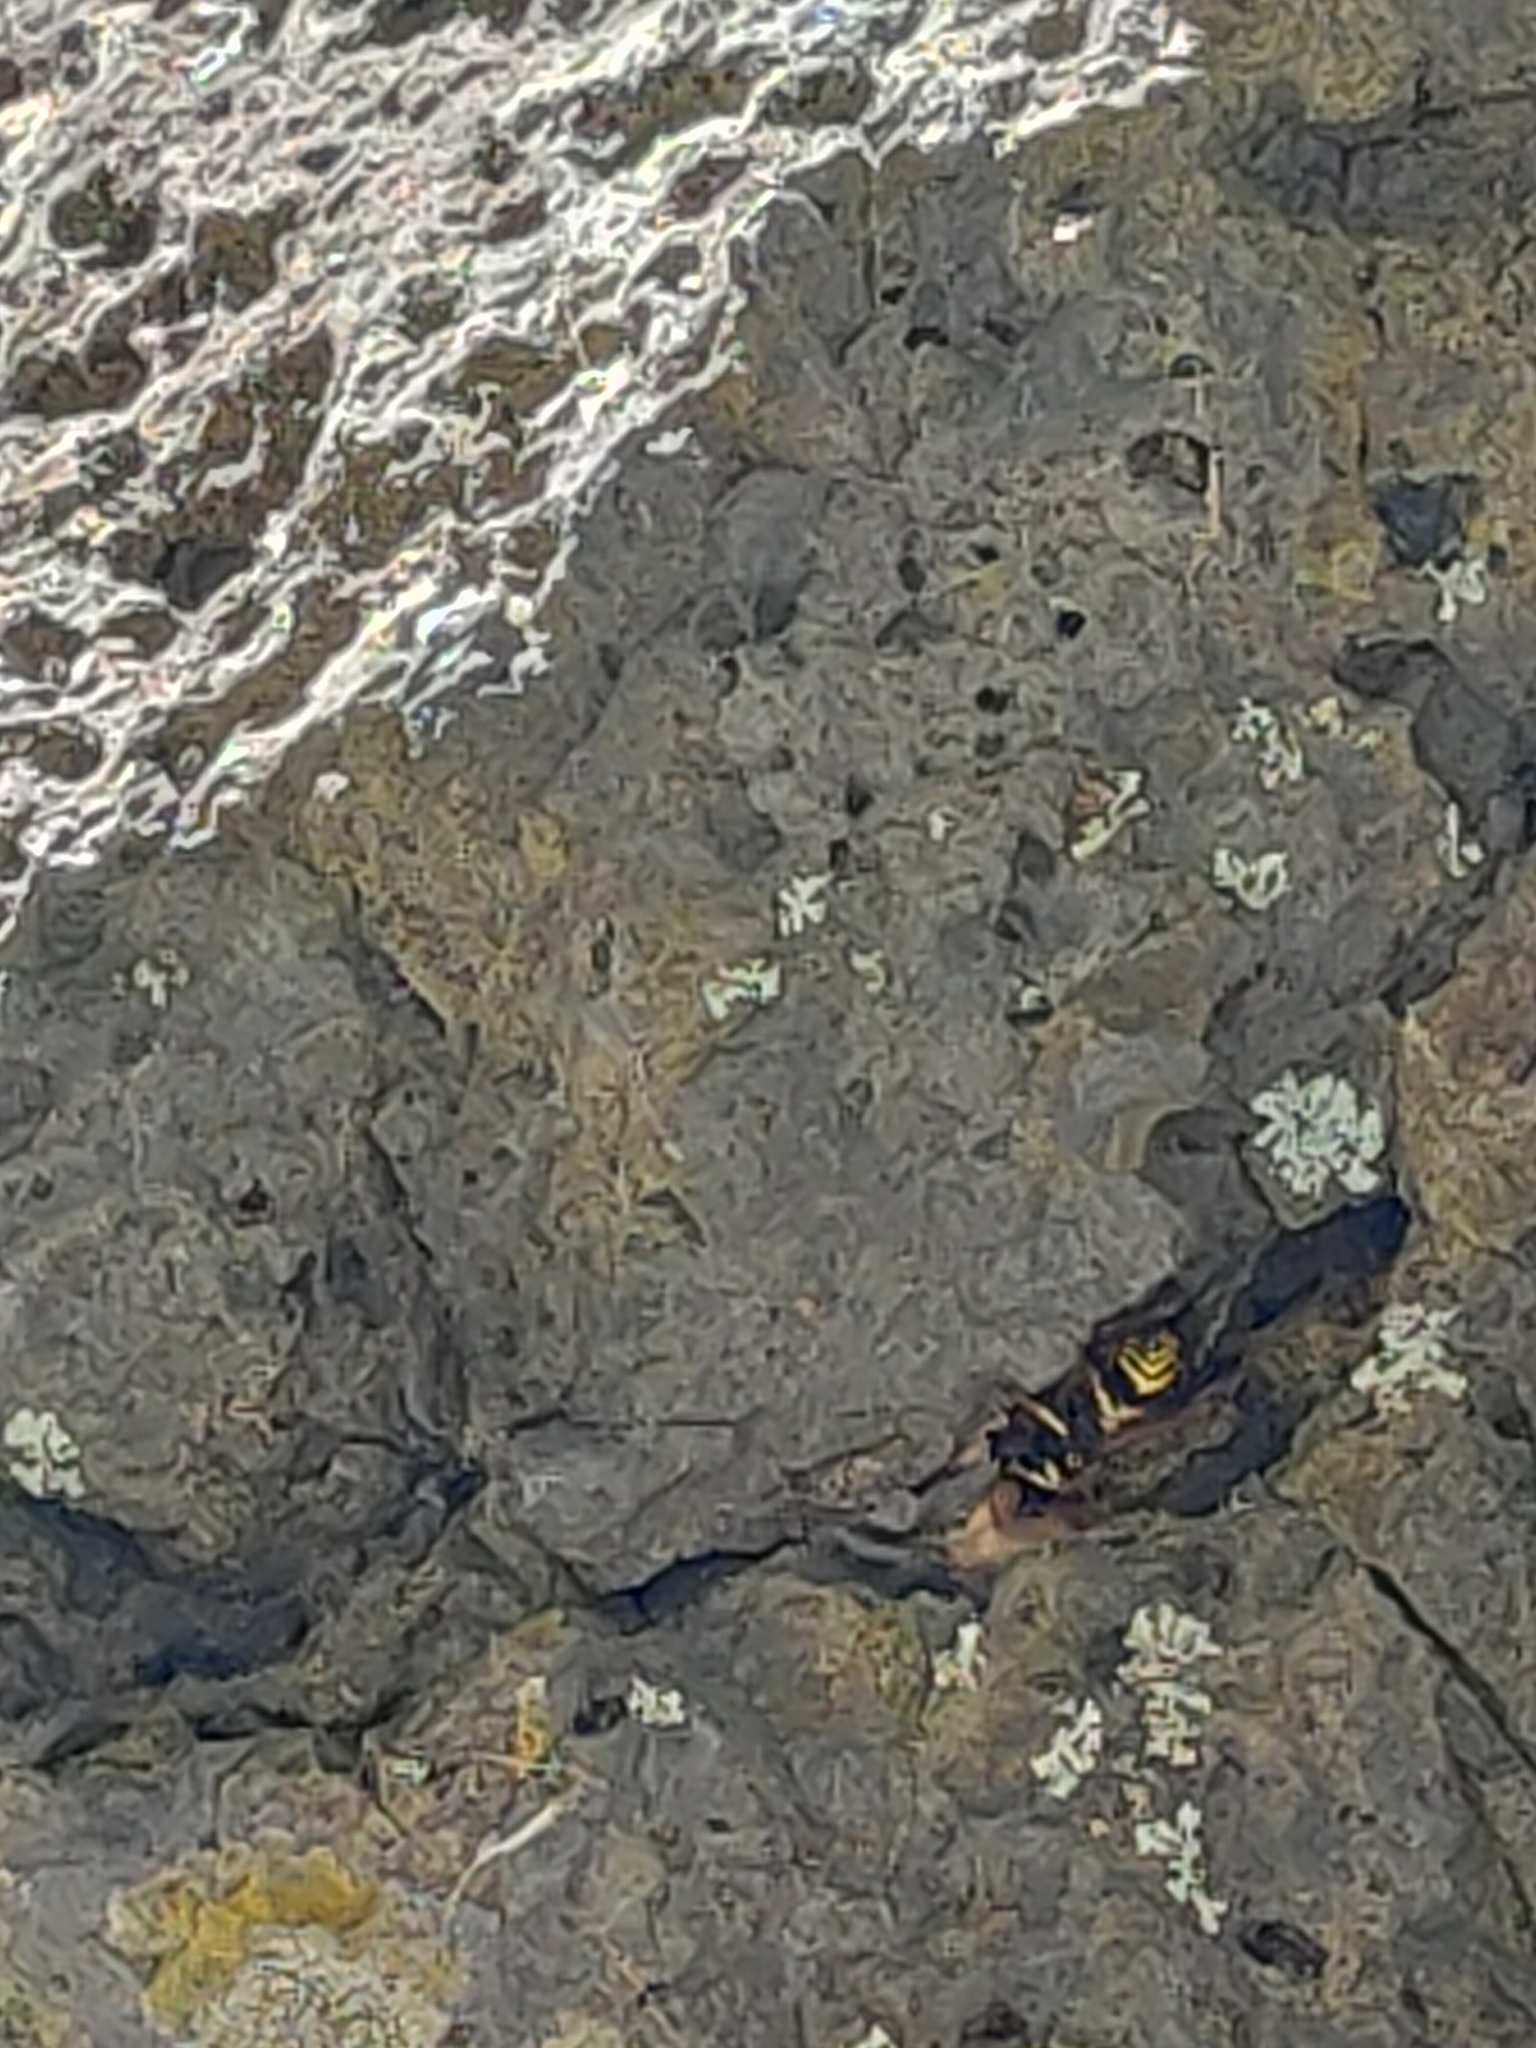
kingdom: Animalia
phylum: Arthropoda
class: Insecta
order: Hymenoptera
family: Vespidae
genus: Ancistrocerus
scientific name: Ancistrocerus gazella
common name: European tube wasp
